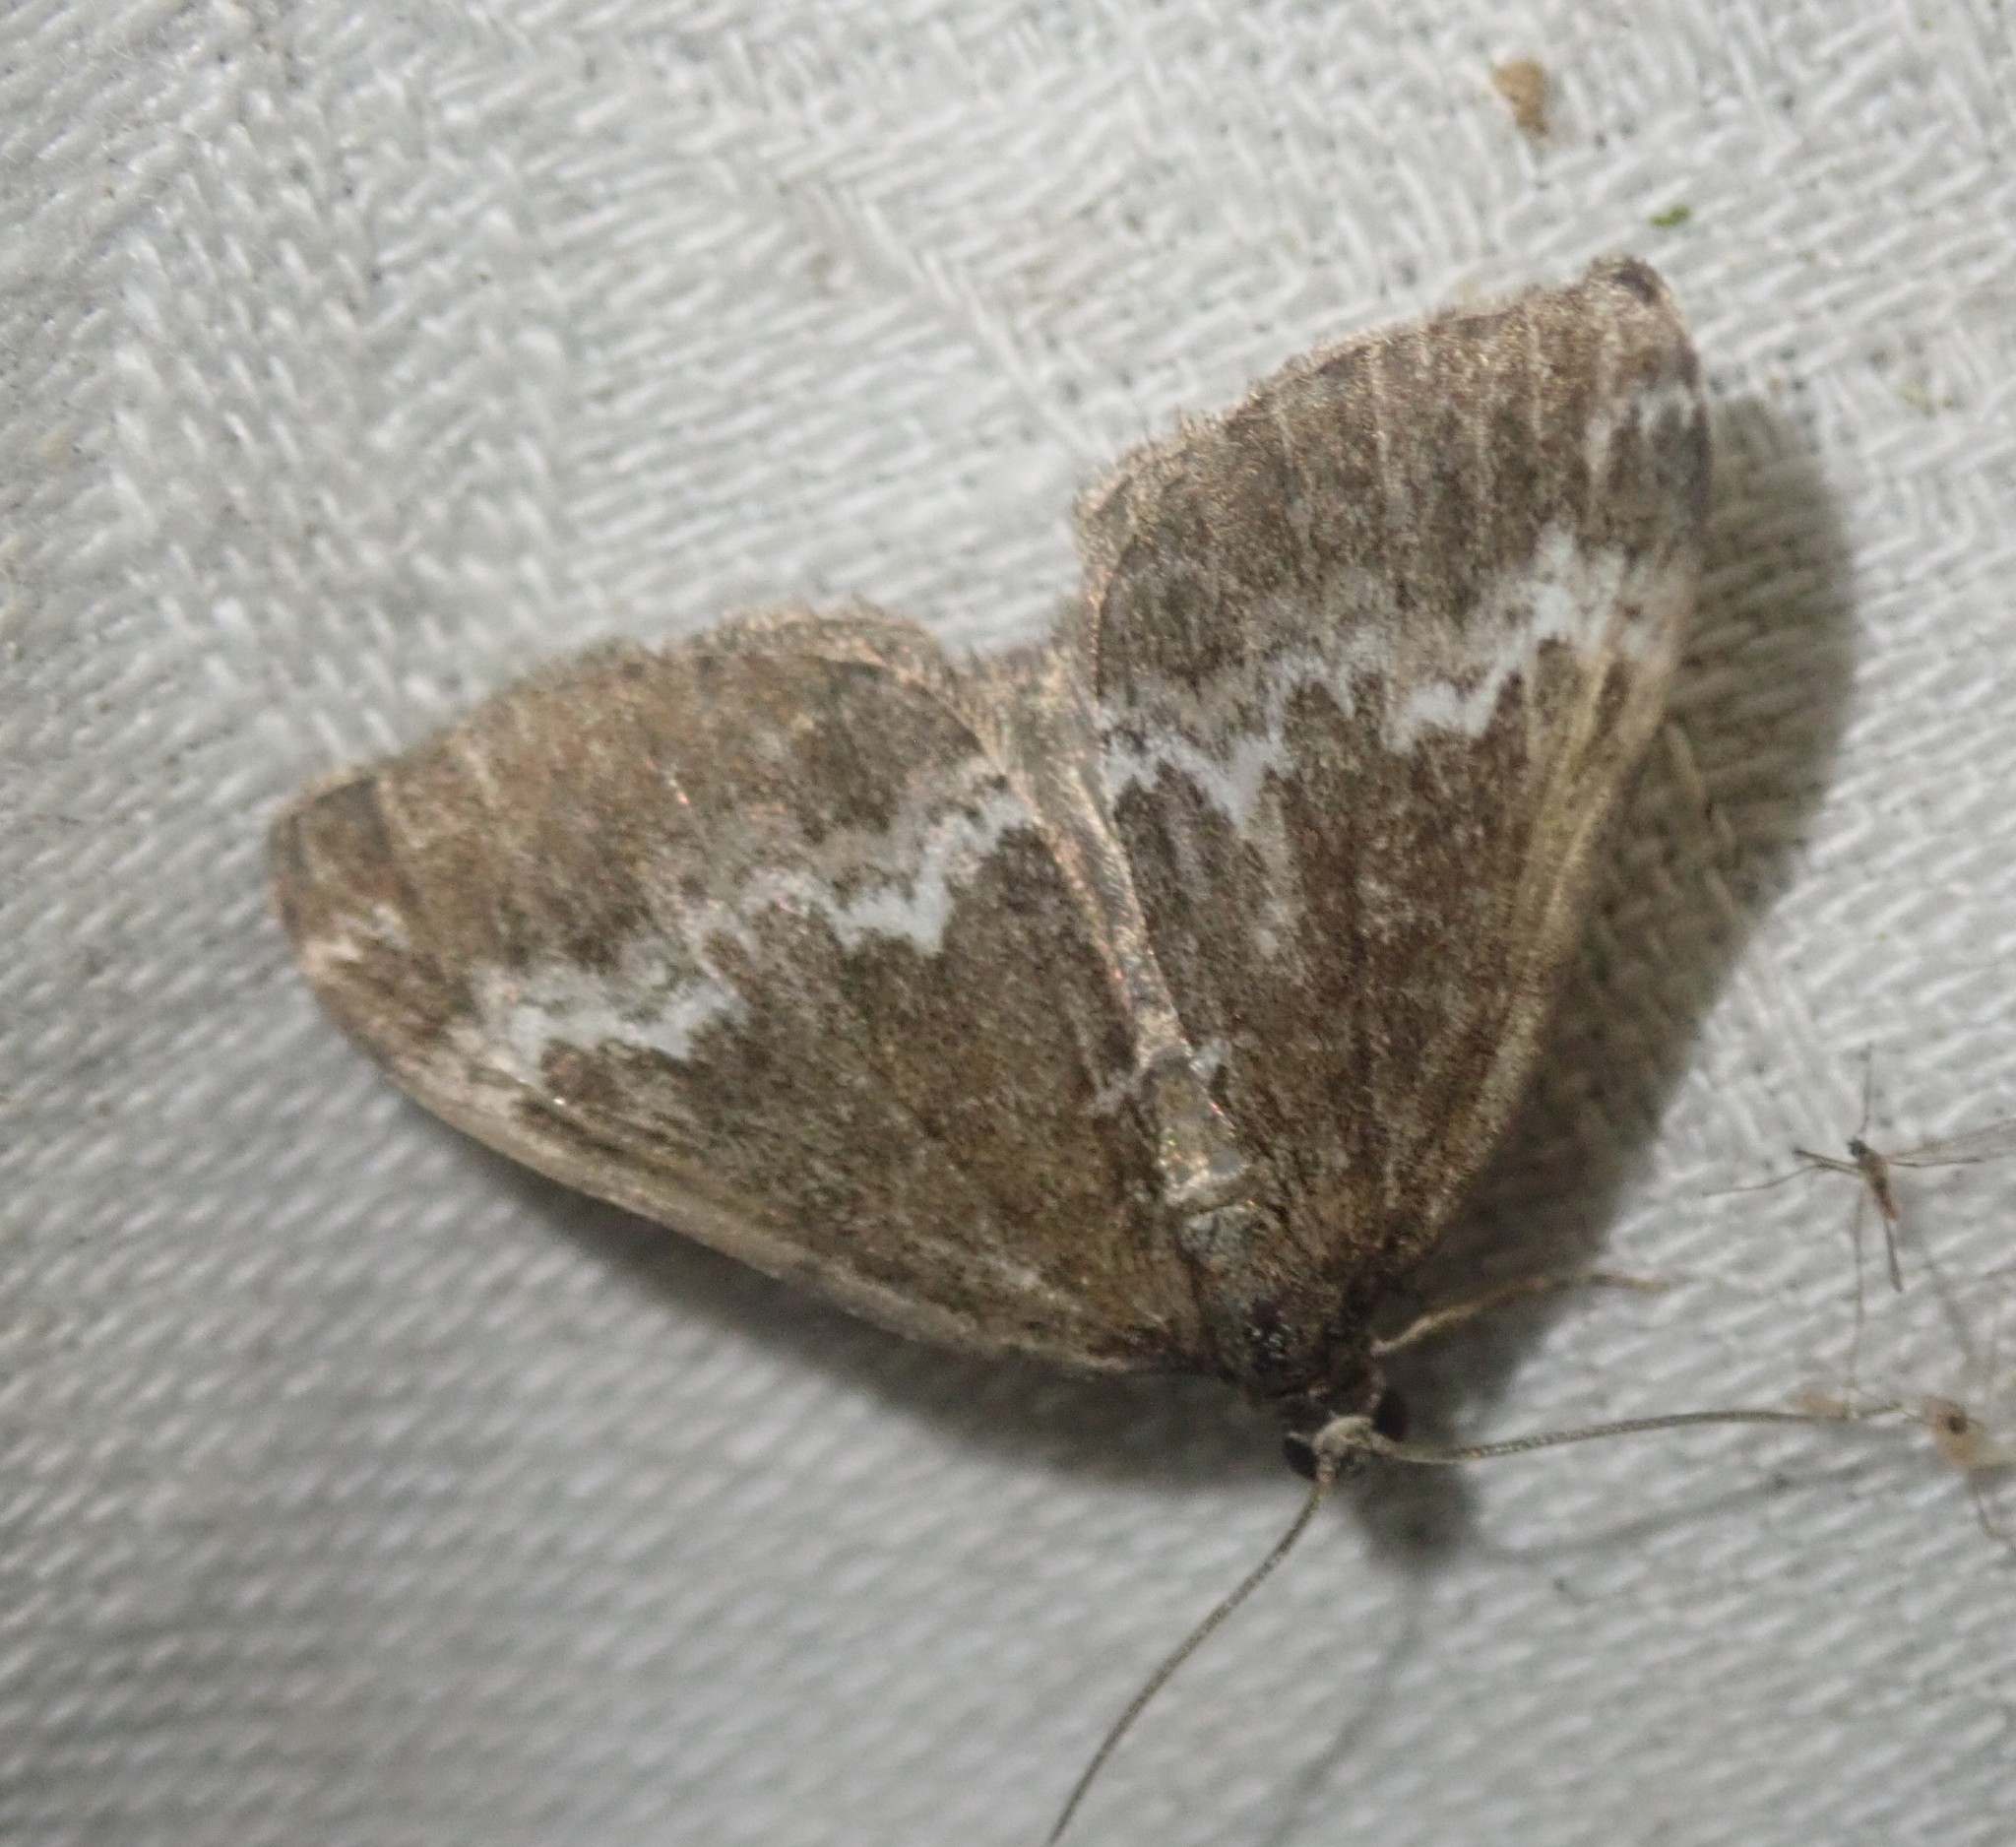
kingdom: Animalia
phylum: Arthropoda
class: Insecta
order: Lepidoptera
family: Geometridae
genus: Perizoma
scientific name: Perizoma alchemillata
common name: Small rivulet
